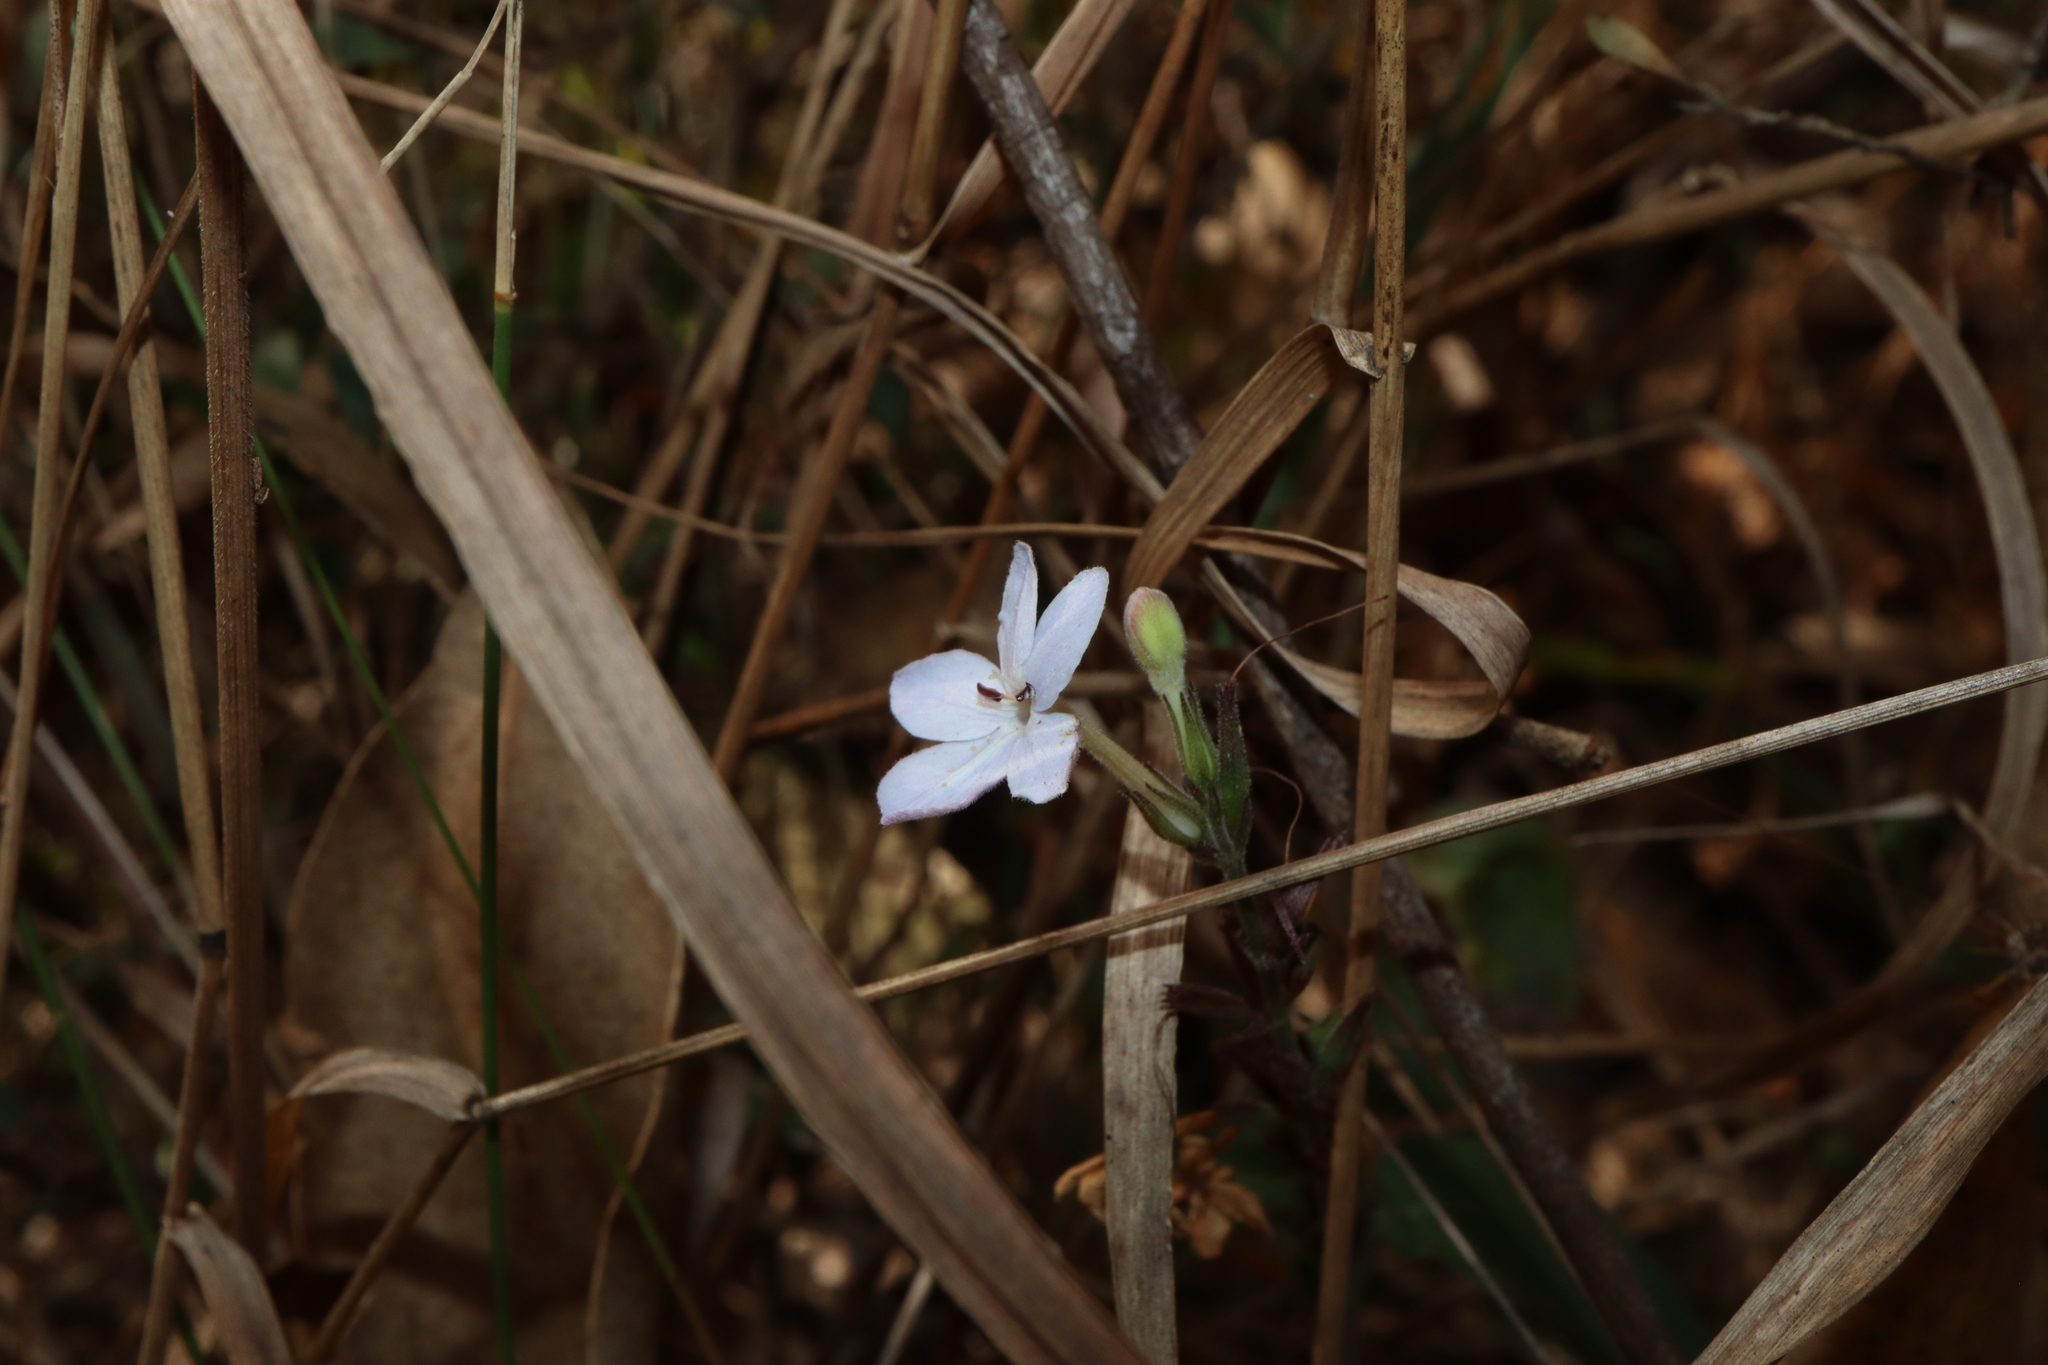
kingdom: Plantae
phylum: Tracheophyta
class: Magnoliopsida
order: Lamiales
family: Acanthaceae
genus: Pseuderanthemum
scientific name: Pseuderanthemum variabile
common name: Night and afternoon
